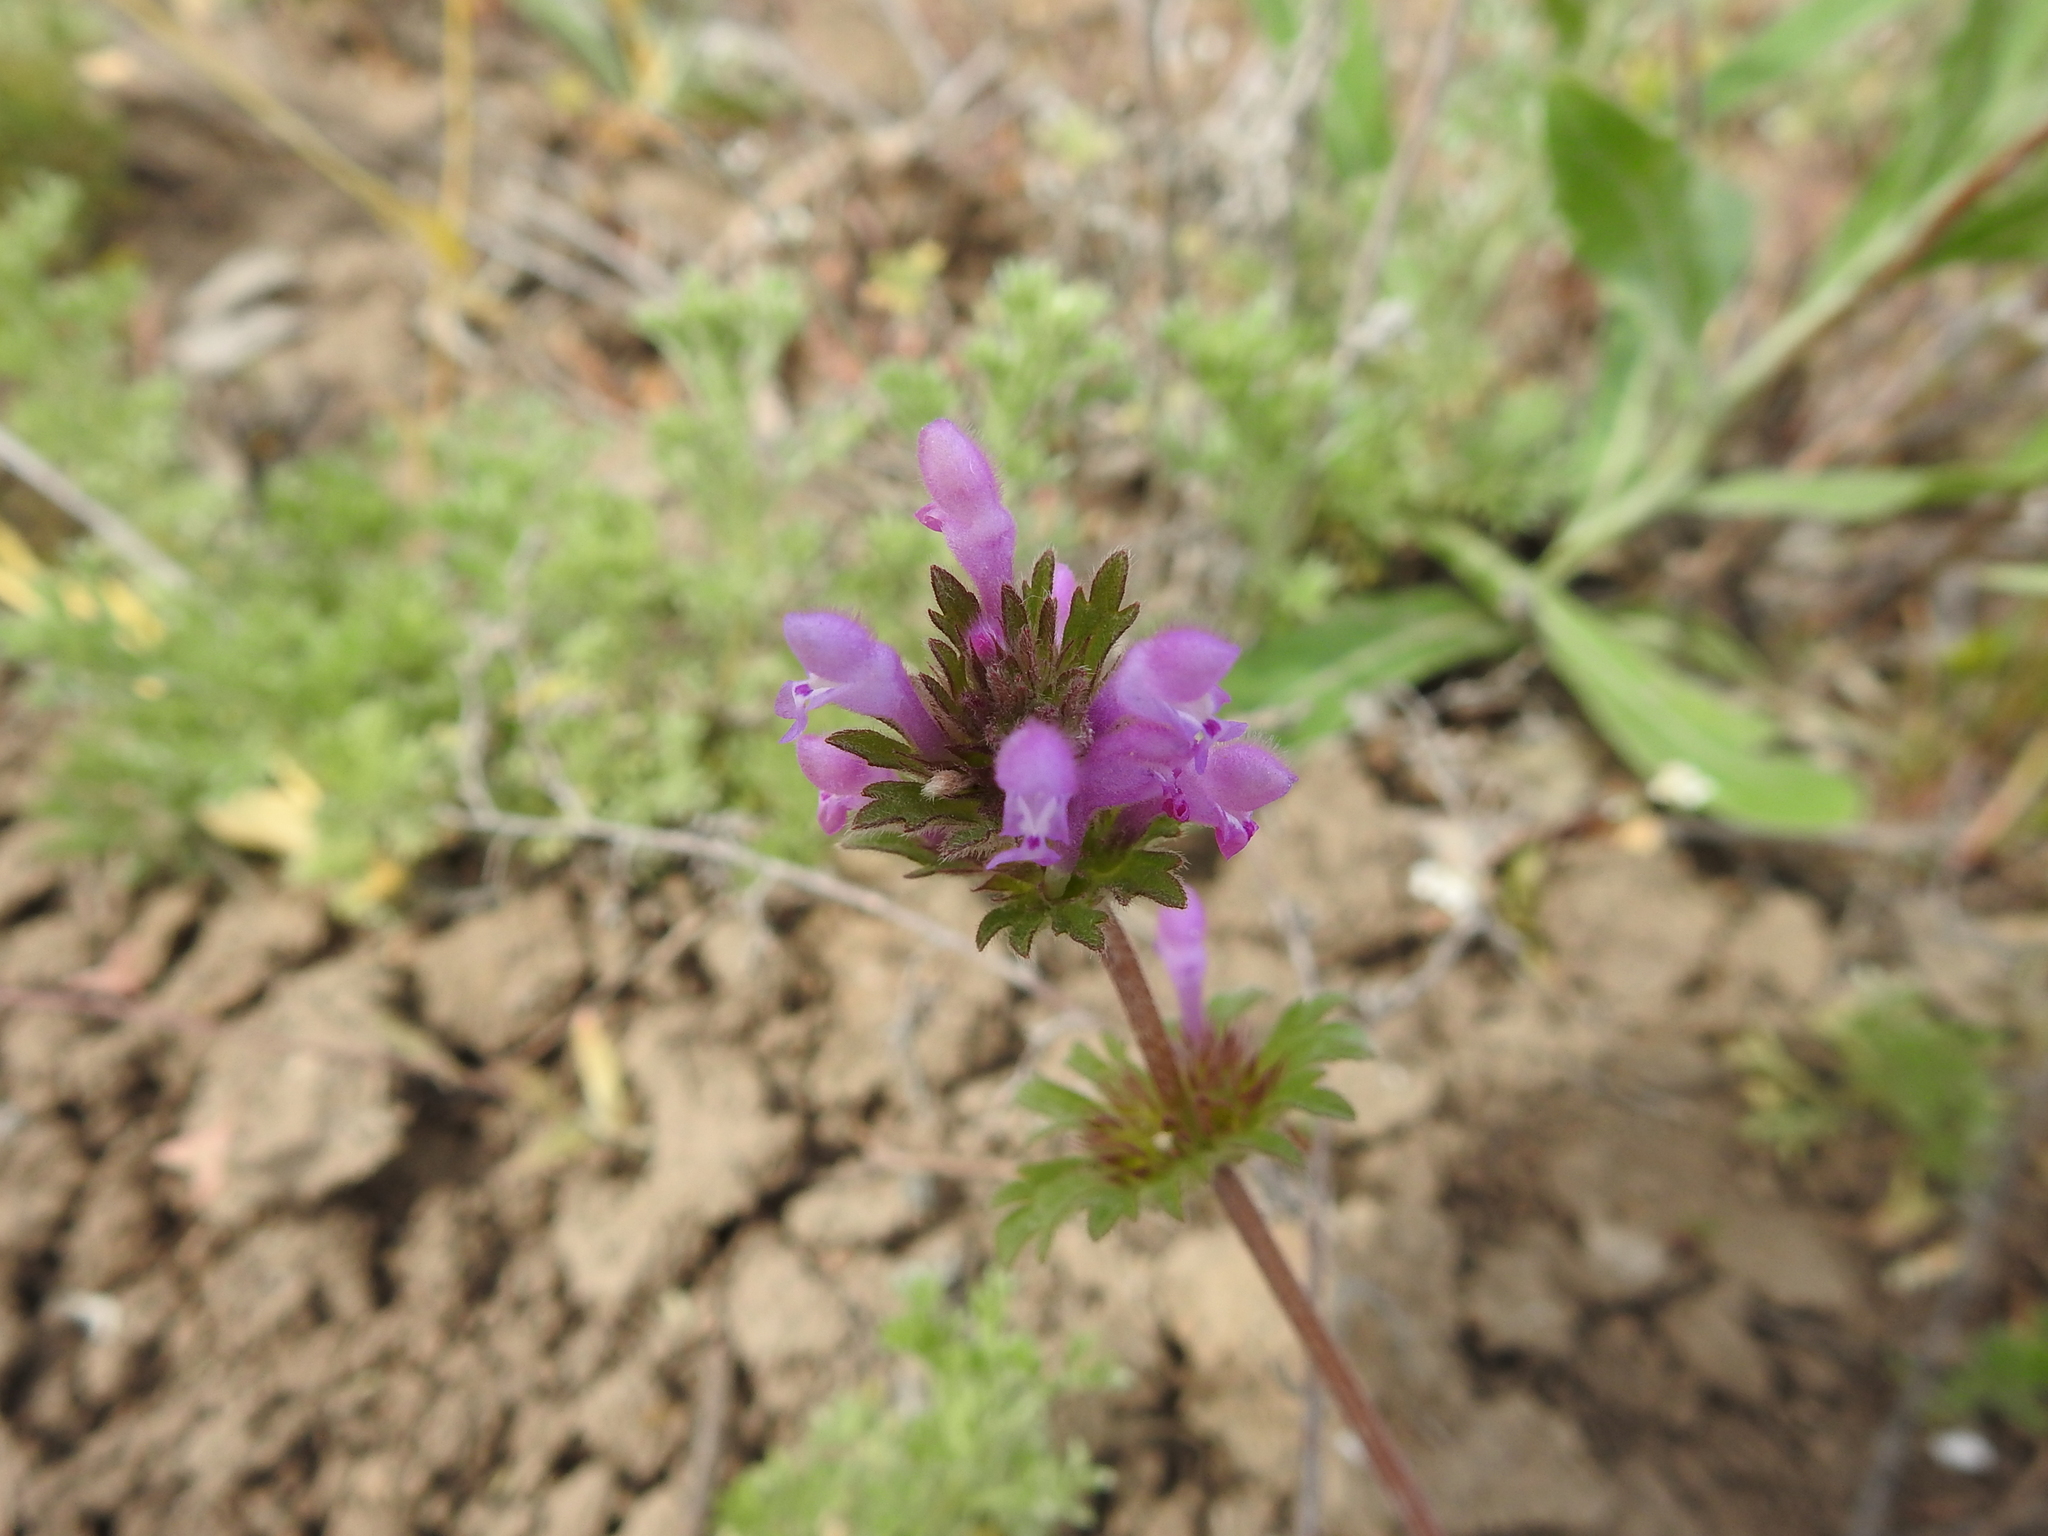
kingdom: Plantae
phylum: Tracheophyta
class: Magnoliopsida
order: Lamiales
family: Lamiaceae
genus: Lamium
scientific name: Lamium amplexicaule
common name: Henbit dead-nettle
